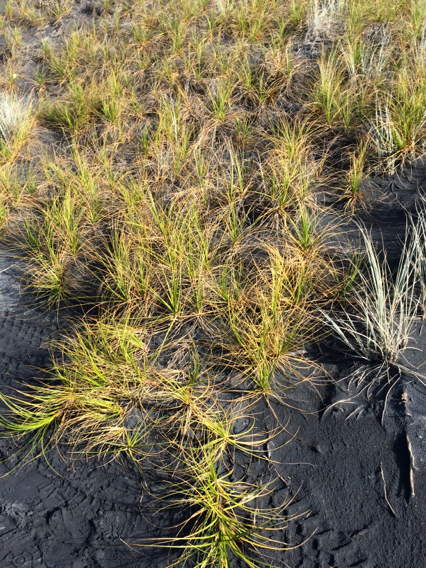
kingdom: Plantae
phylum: Tracheophyta
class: Liliopsida
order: Poales
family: Cyperaceae
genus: Ficinia
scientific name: Ficinia spiralis
